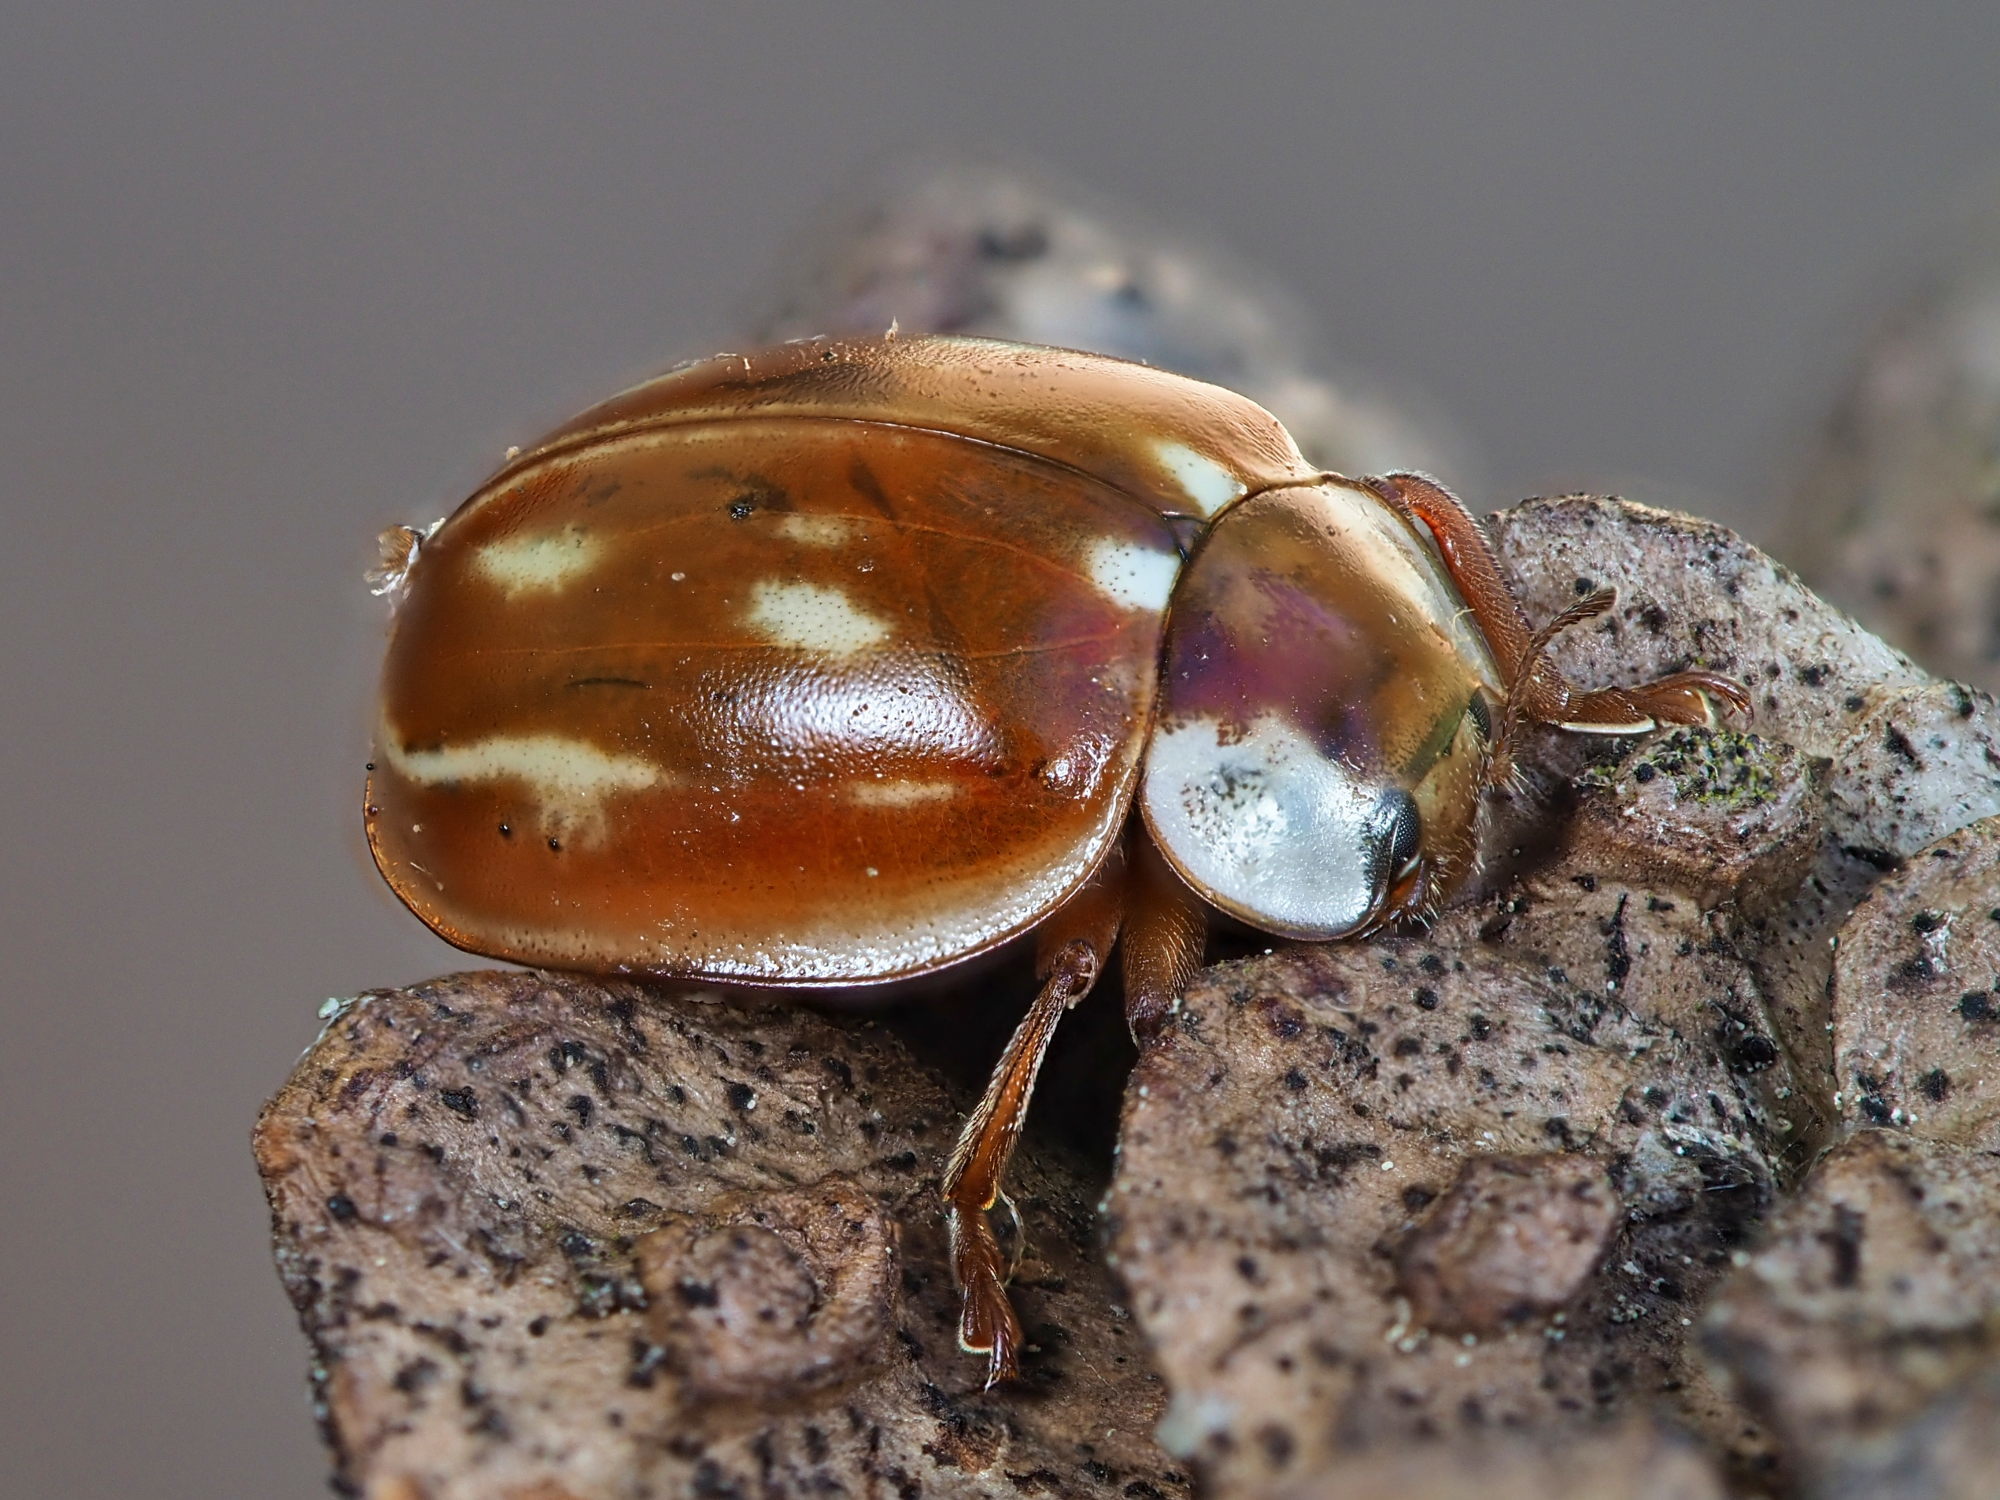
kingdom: Animalia
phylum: Arthropoda
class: Insecta
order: Coleoptera
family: Coccinellidae
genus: Myzia
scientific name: Myzia oblongoguttata
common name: Striped ladybird
